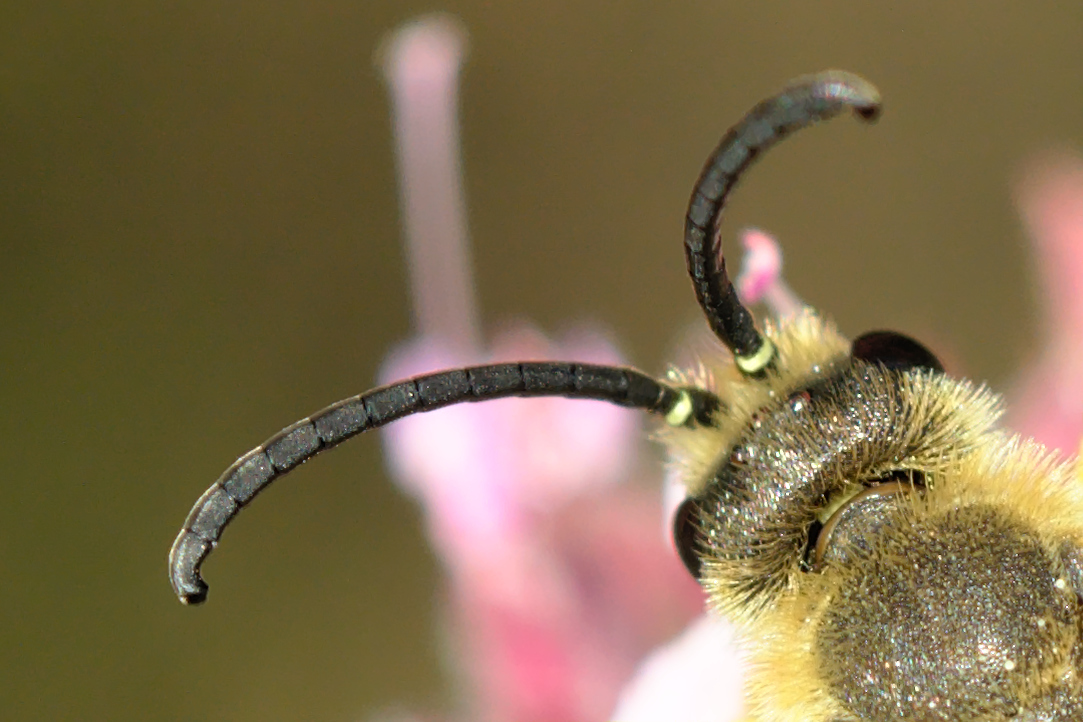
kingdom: Animalia
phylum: Arthropoda
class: Insecta
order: Hymenoptera
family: Halictidae
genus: Halictus
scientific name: Halictus scabiosae
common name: Great banded furrow bee
